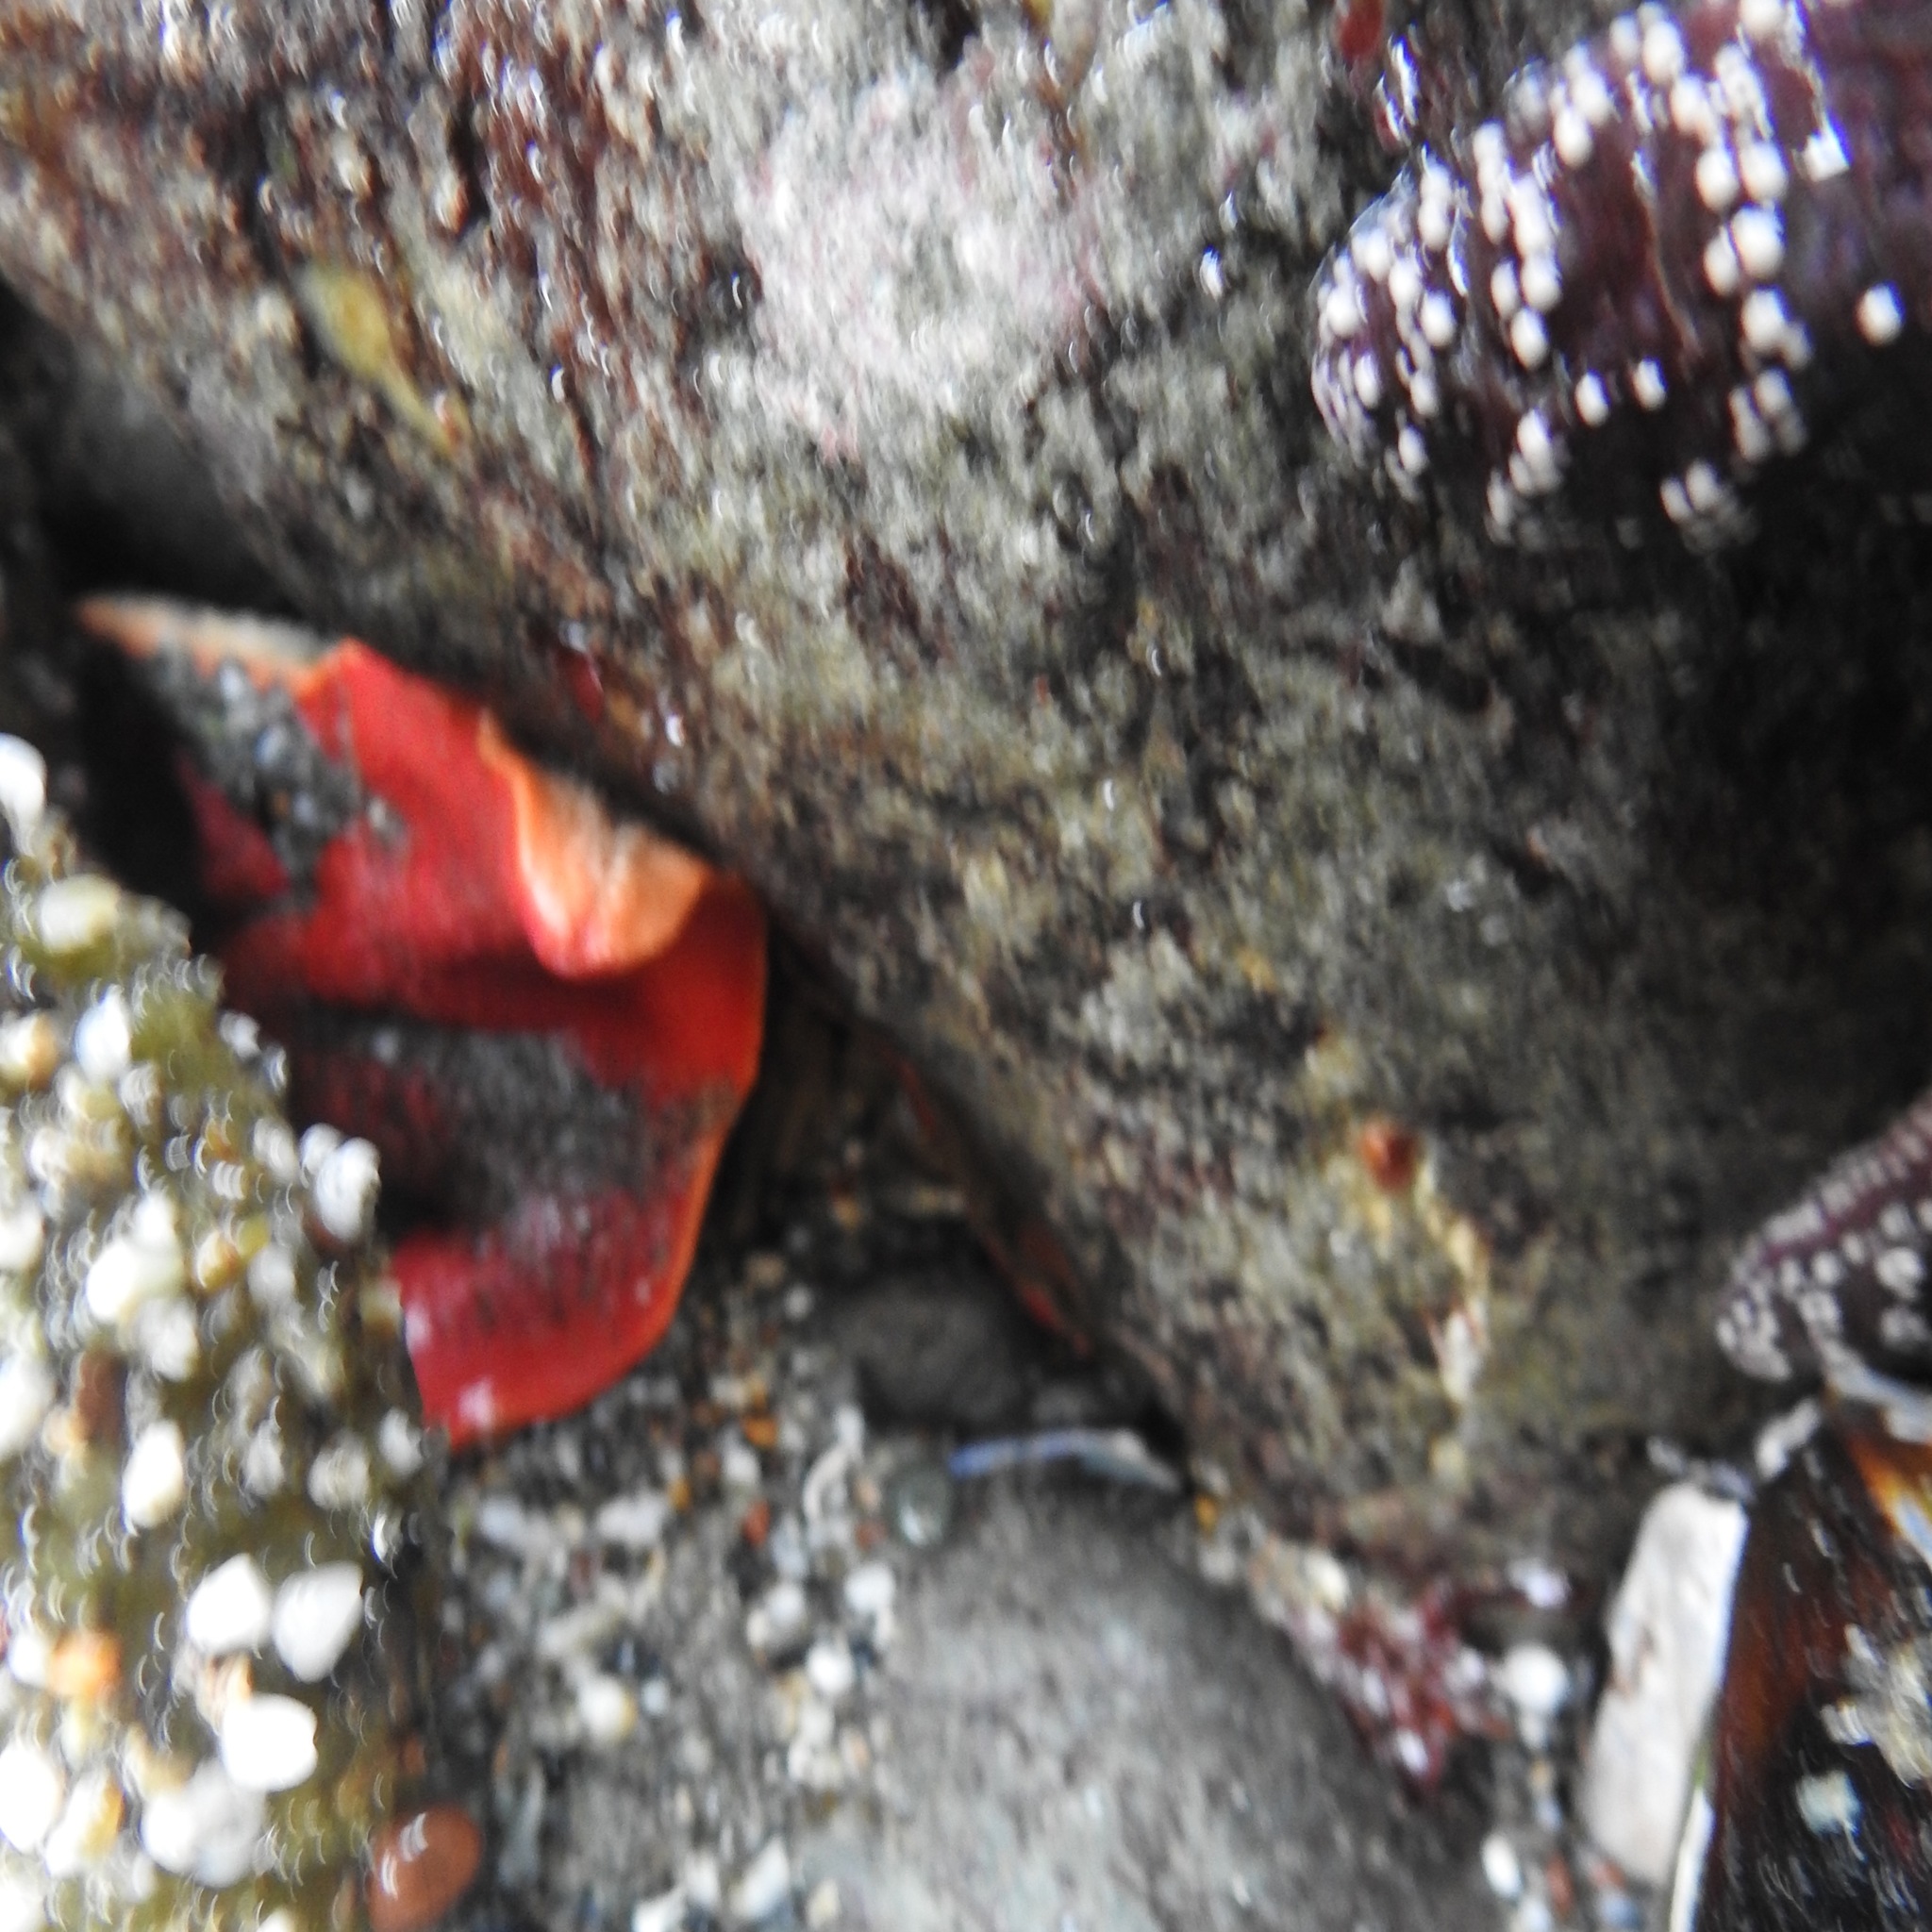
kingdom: Animalia
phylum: Echinodermata
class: Asteroidea
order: Valvatida
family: Asterinidae
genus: Patiria
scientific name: Patiria miniata
